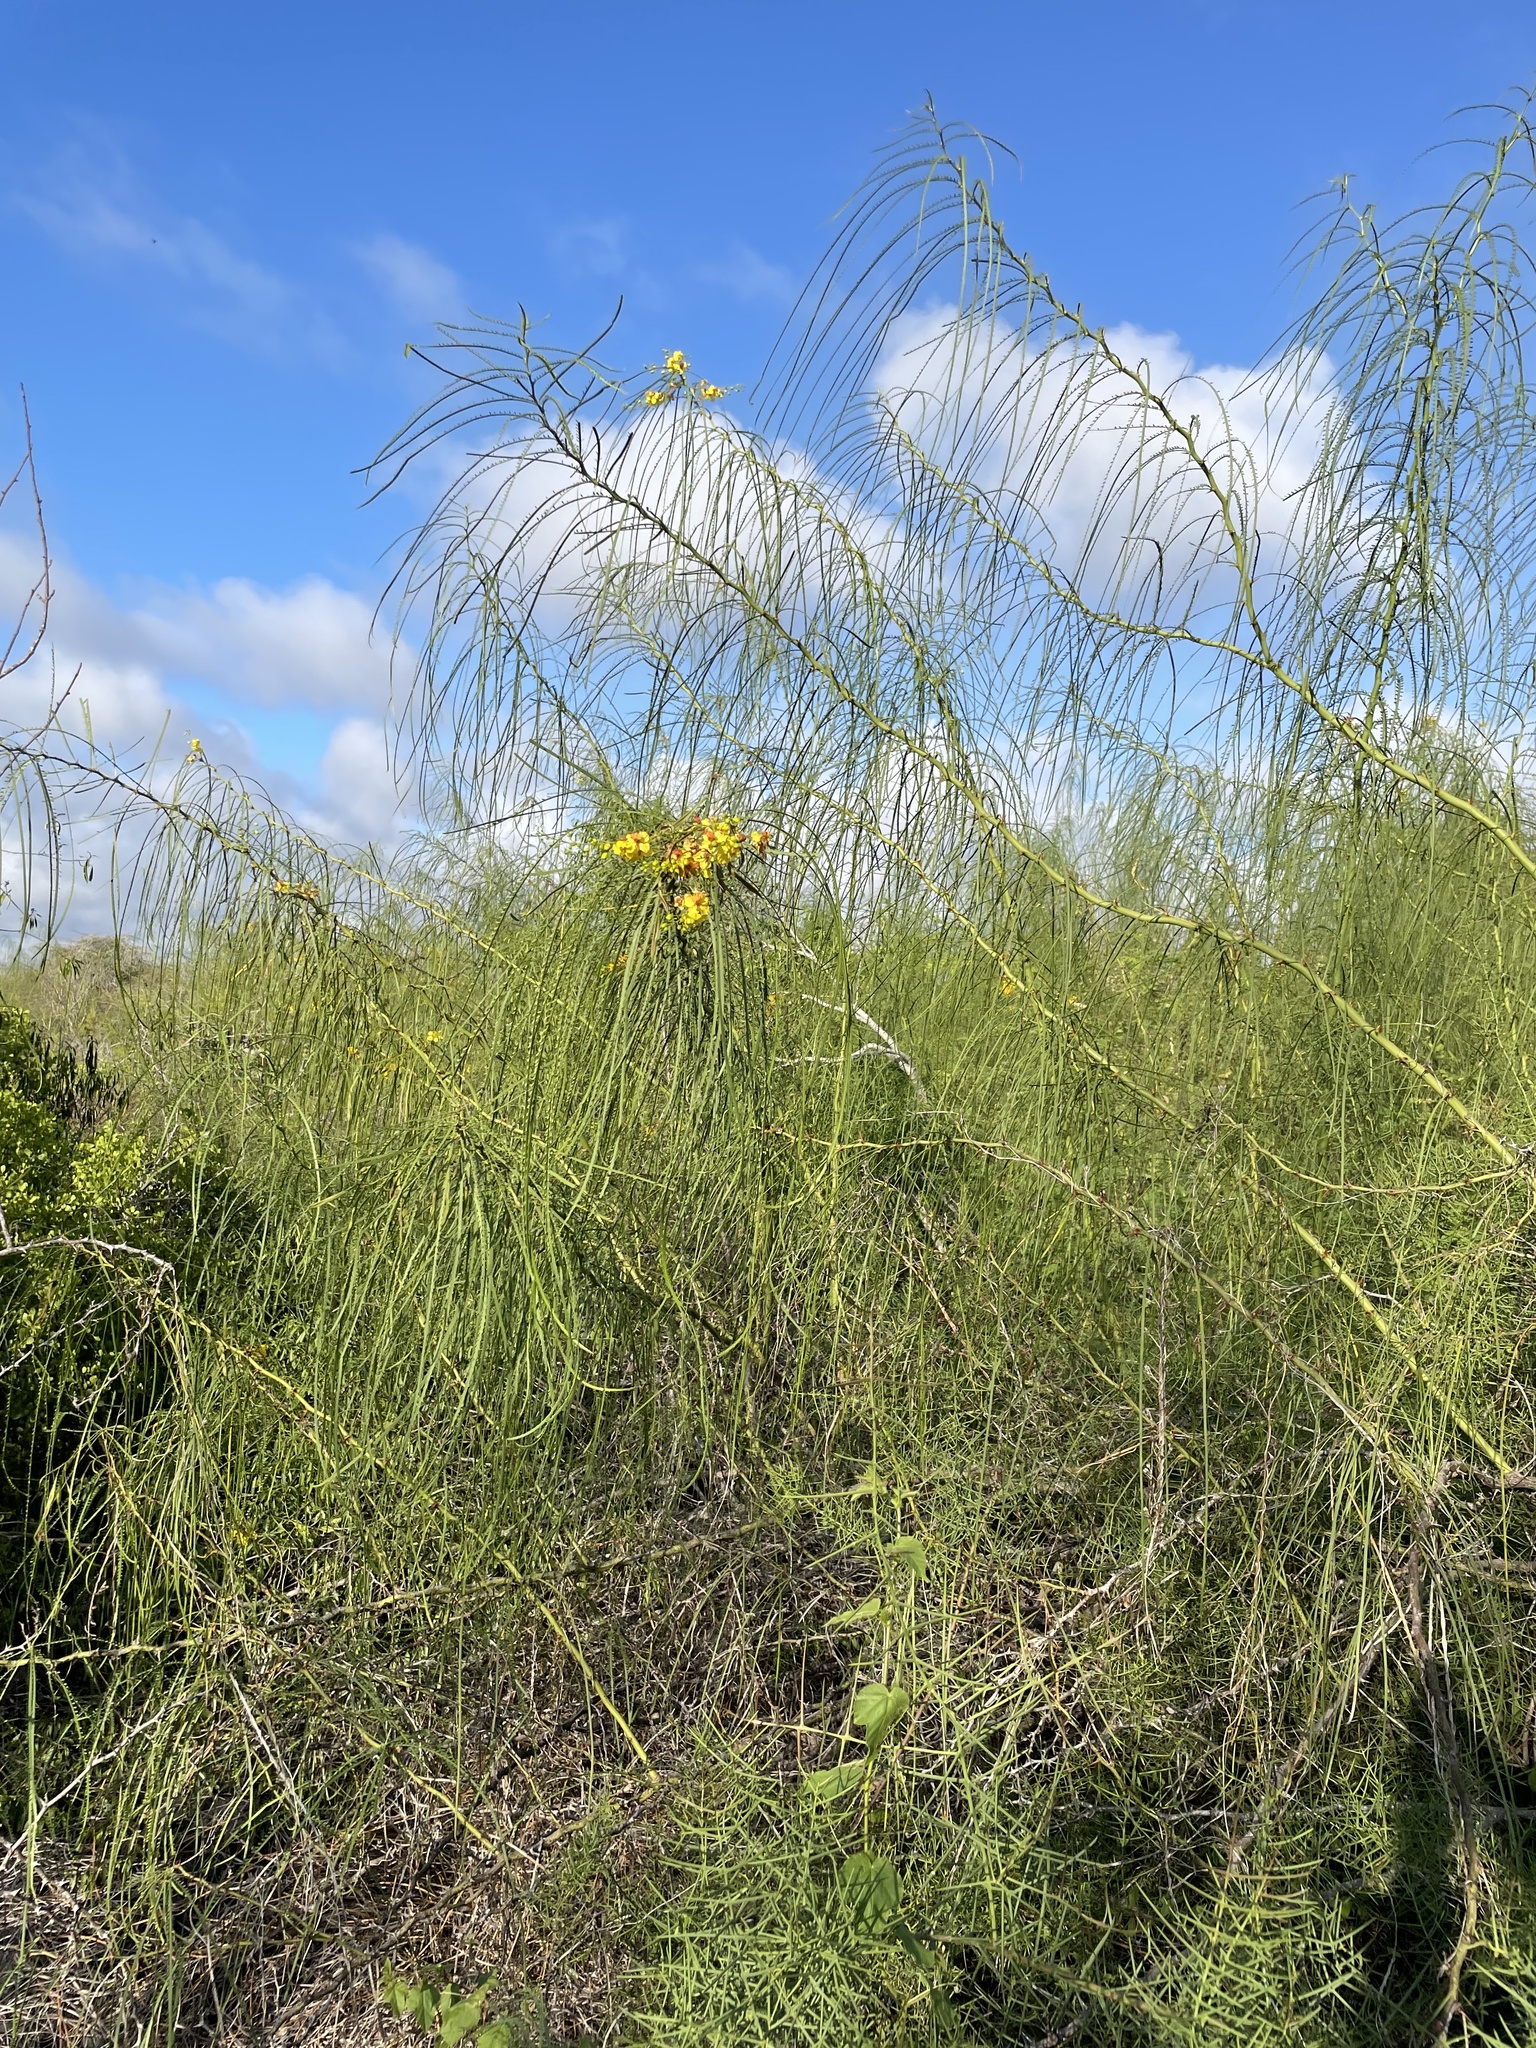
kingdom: Plantae
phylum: Tracheophyta
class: Magnoliopsida
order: Fabales
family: Fabaceae
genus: Parkinsonia
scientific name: Parkinsonia aculeata
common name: Jerusalem thorn
